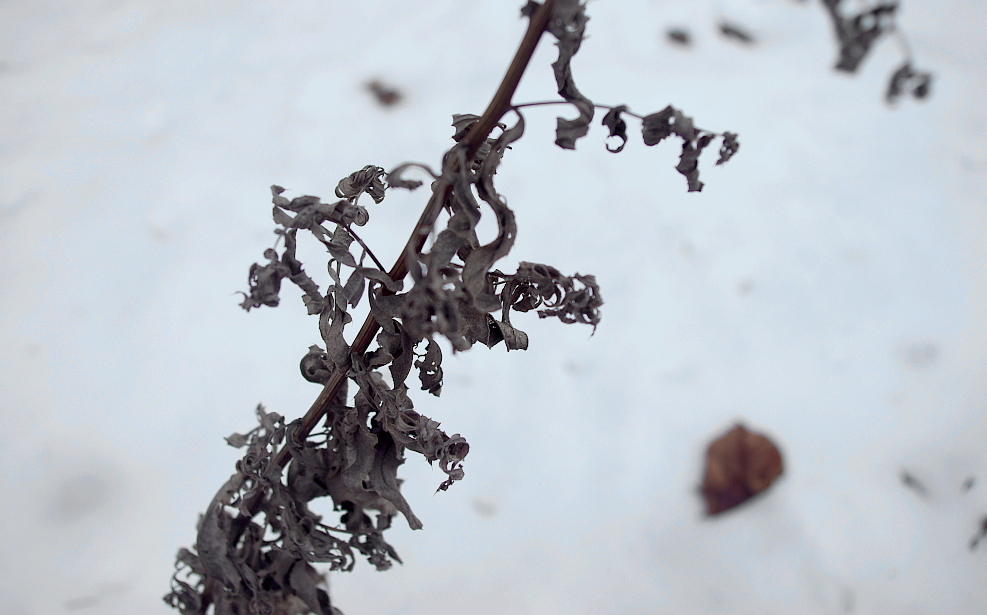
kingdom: Plantae
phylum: Tracheophyta
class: Magnoliopsida
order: Asterales
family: Asteraceae
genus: Cirsium
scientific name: Cirsium arvense
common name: Creeping thistle
